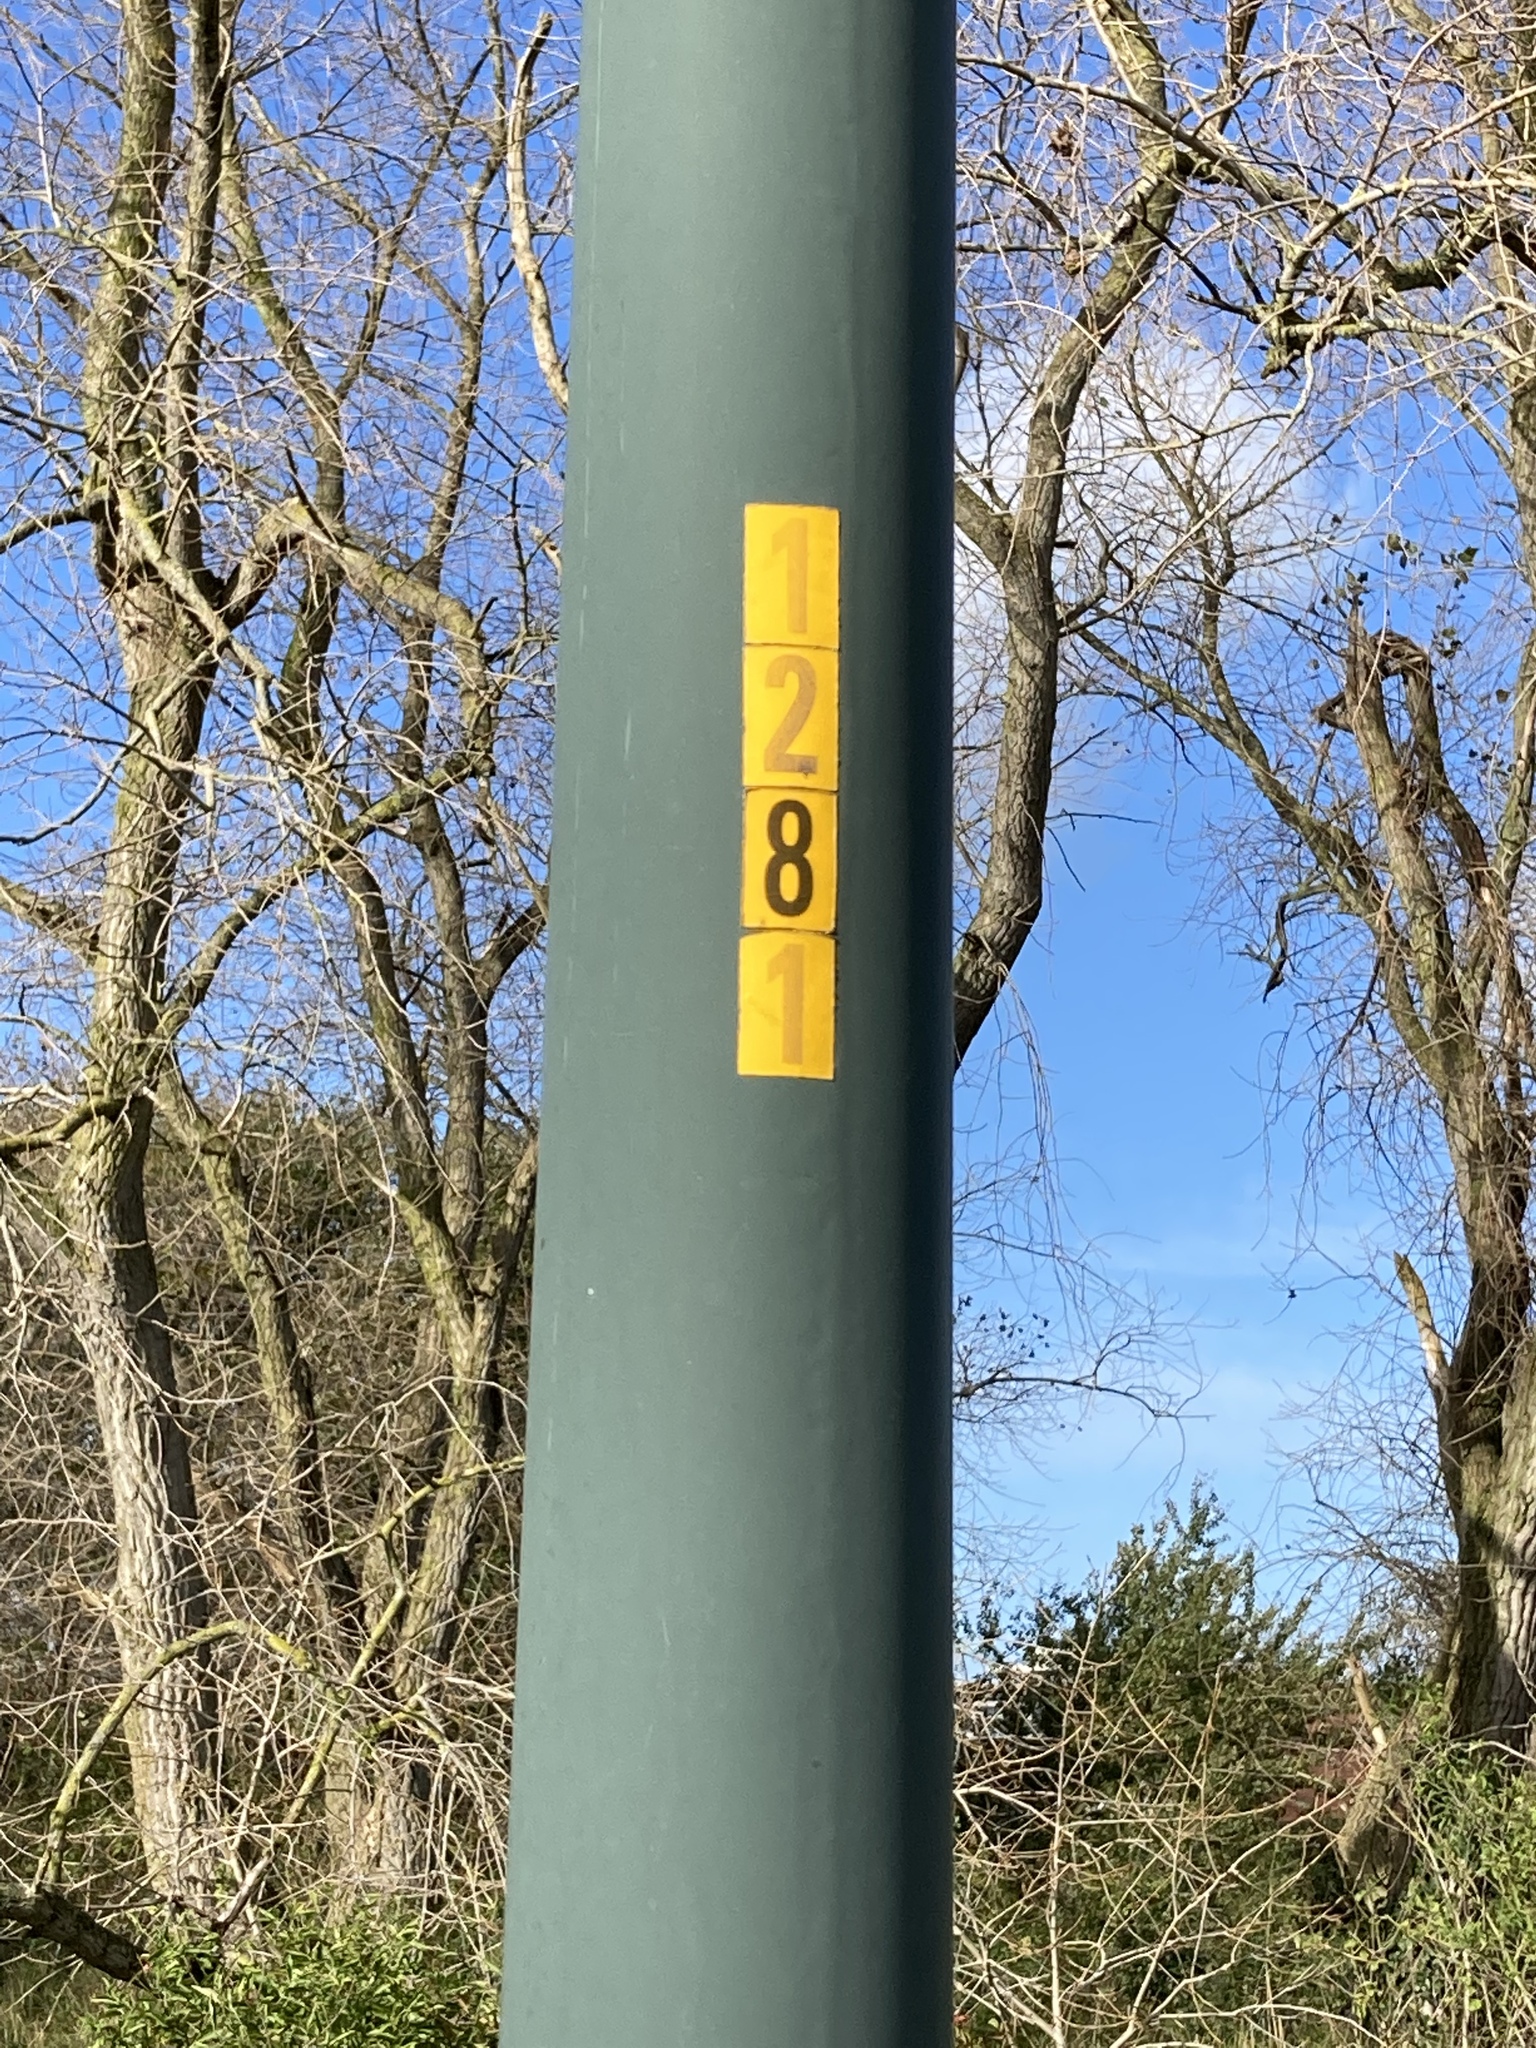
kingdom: Animalia
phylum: Arthropoda
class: Insecta
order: Hymenoptera
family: Vespidae
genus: Vespa
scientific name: Vespa velutina
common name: Asian hornet
